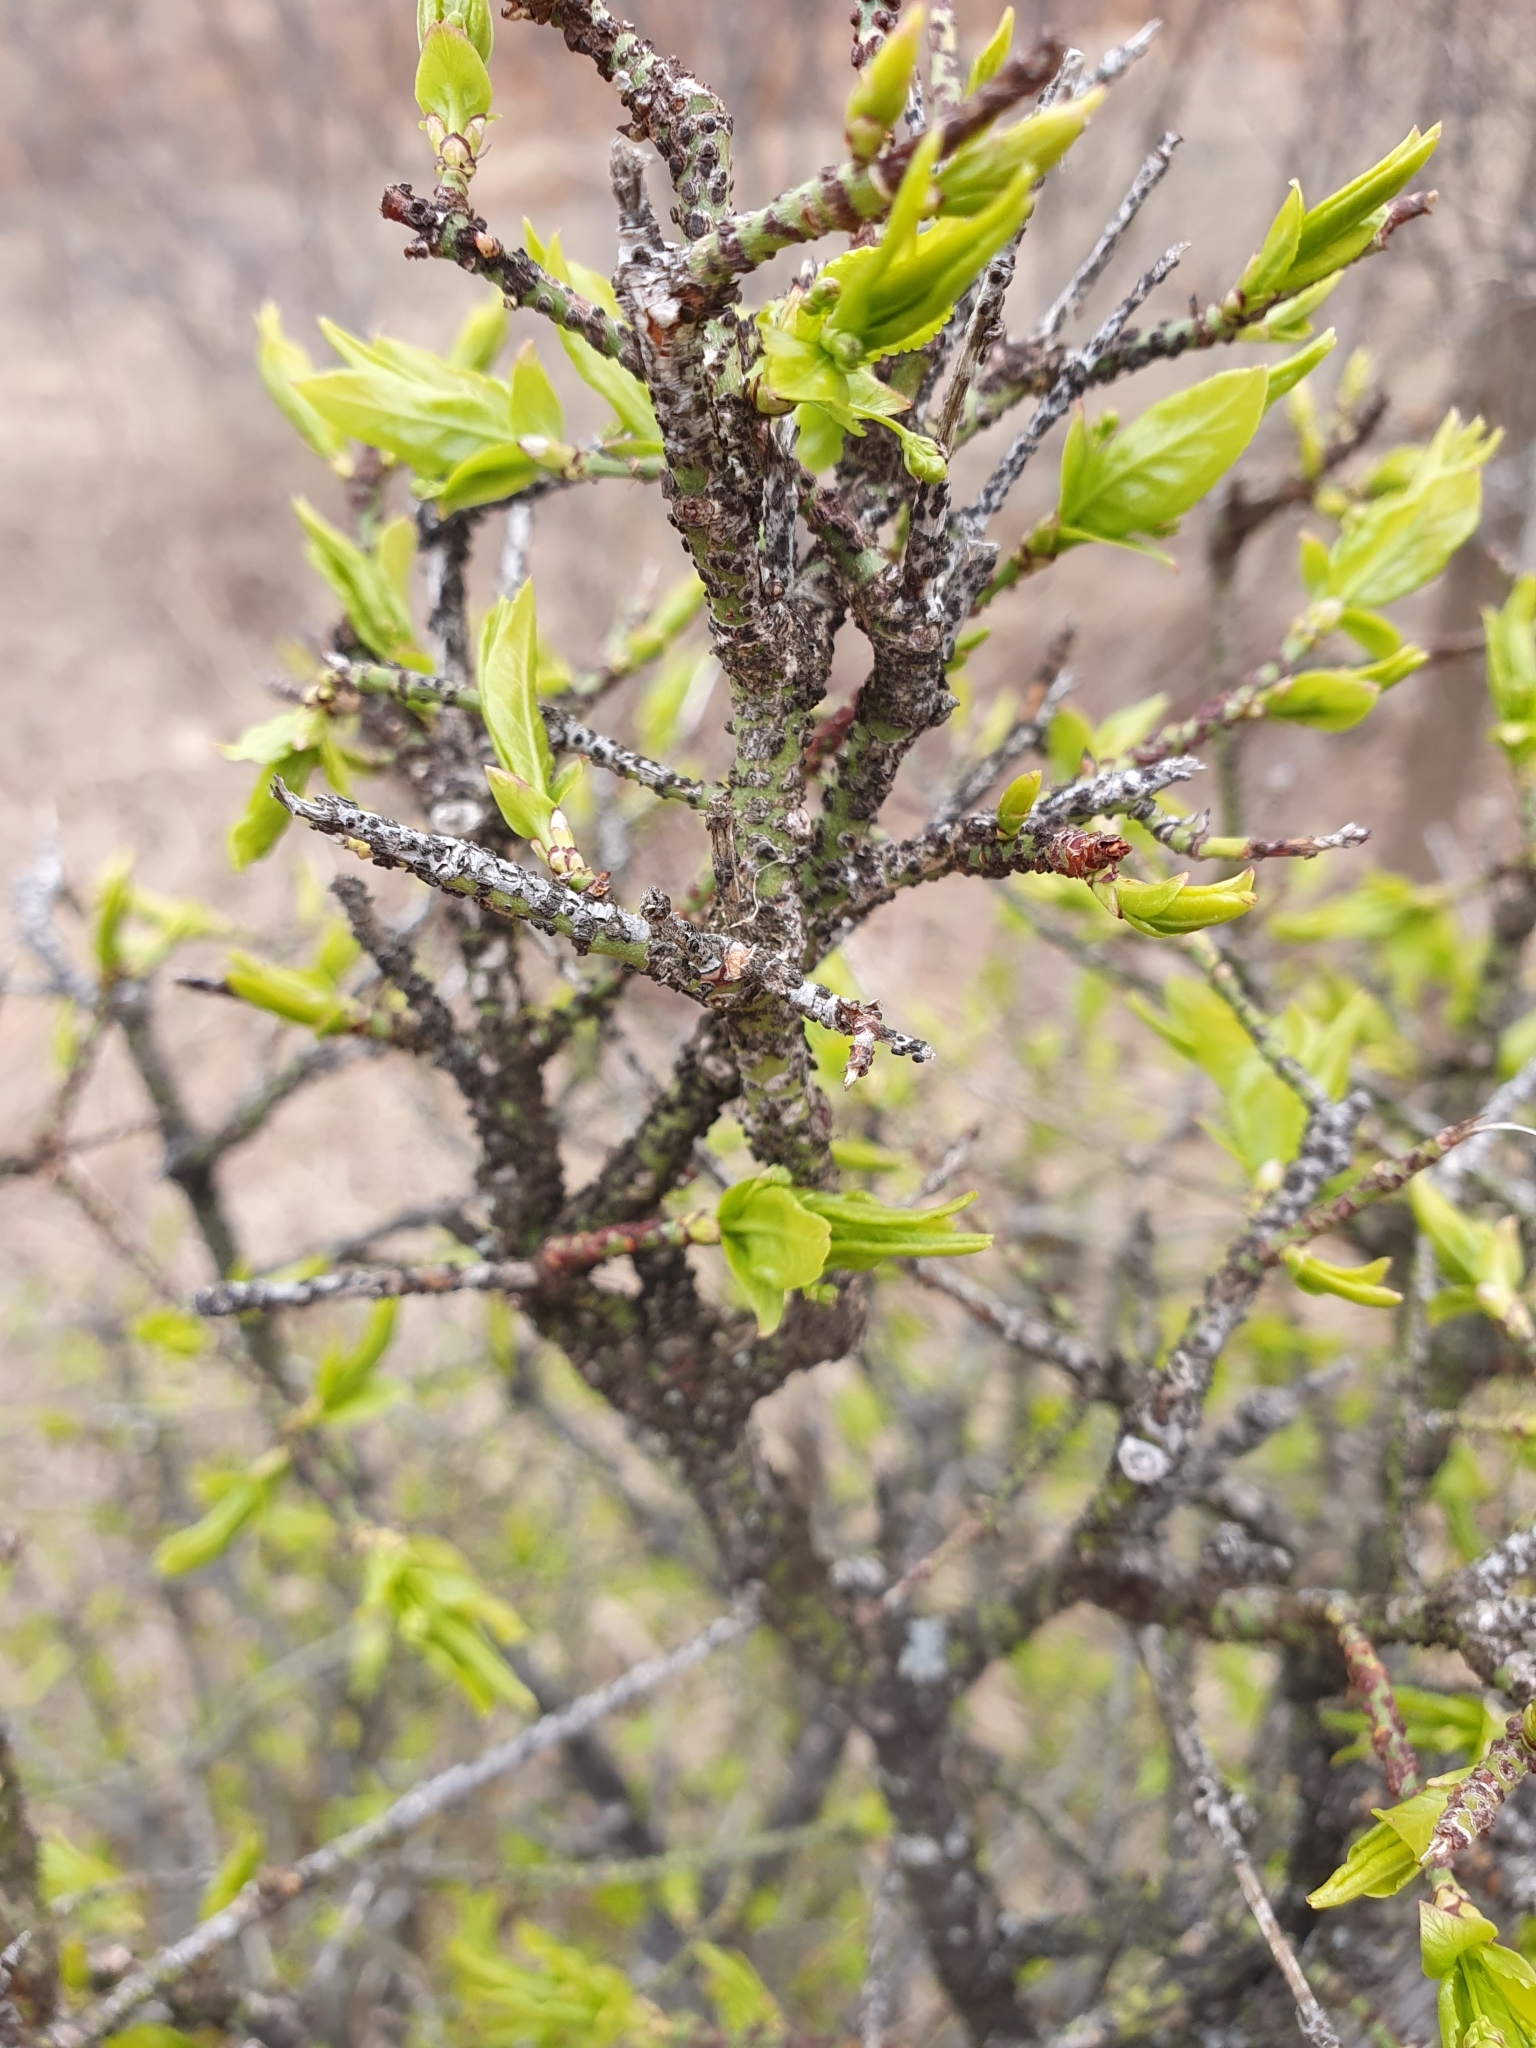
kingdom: Plantae
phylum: Tracheophyta
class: Magnoliopsida
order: Celastrales
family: Celastraceae
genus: Euonymus
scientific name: Euonymus verrucosus
